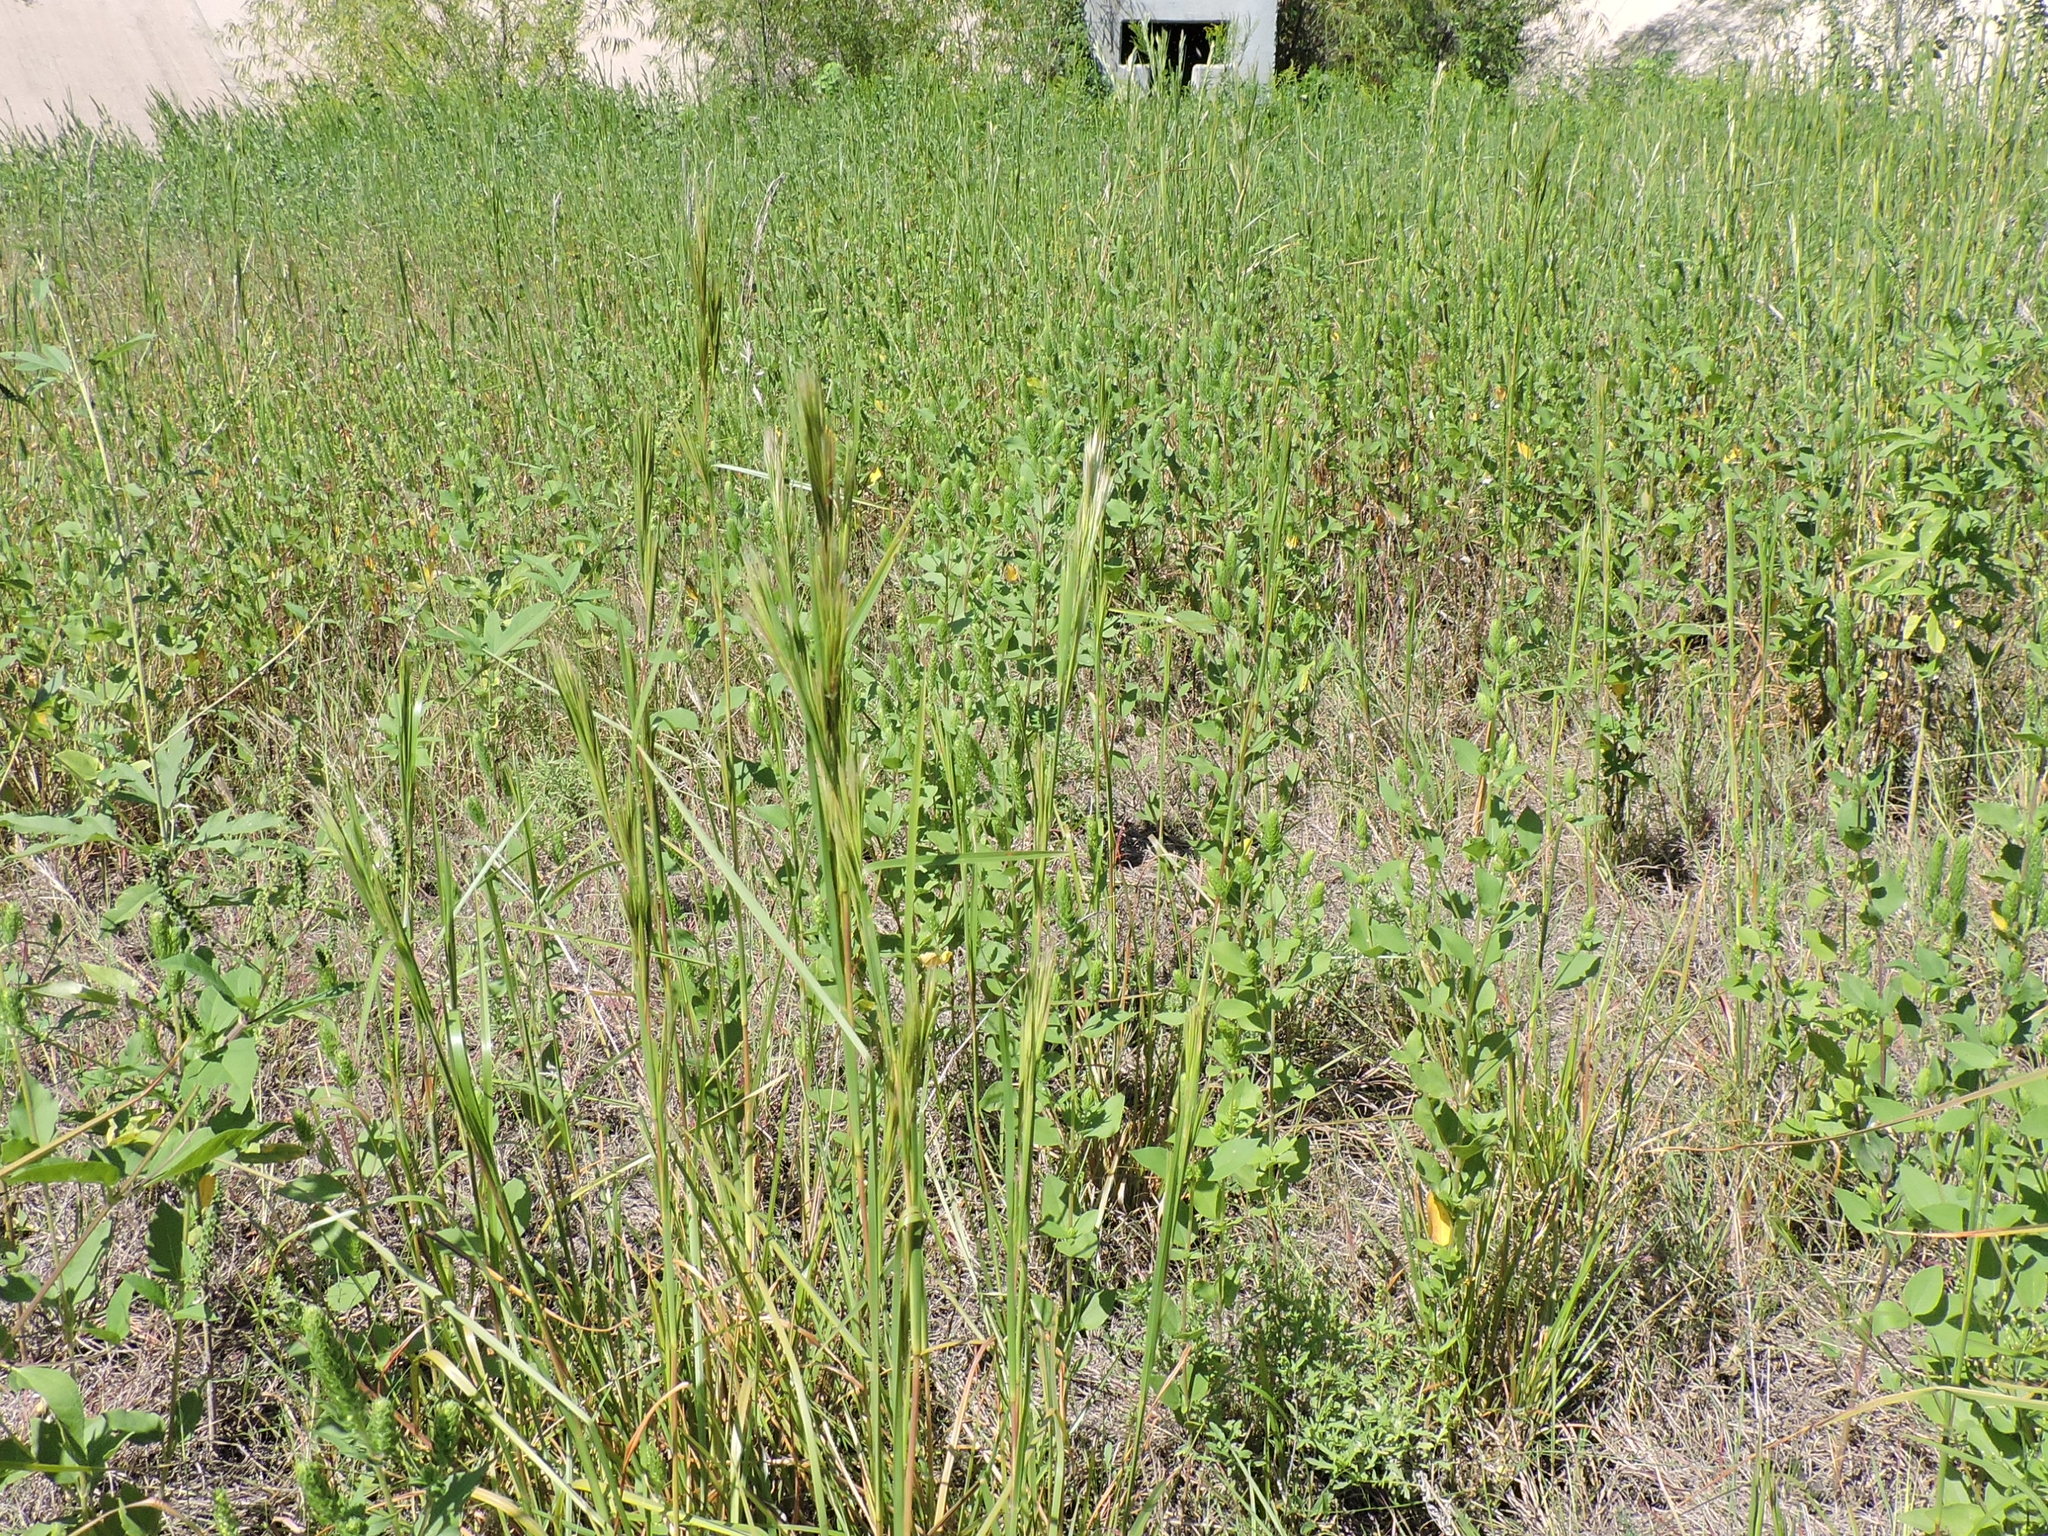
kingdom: Plantae
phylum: Tracheophyta
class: Liliopsida
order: Poales
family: Poaceae
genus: Andropogon
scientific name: Andropogon tenuispatheus
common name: Bushy bluestem
